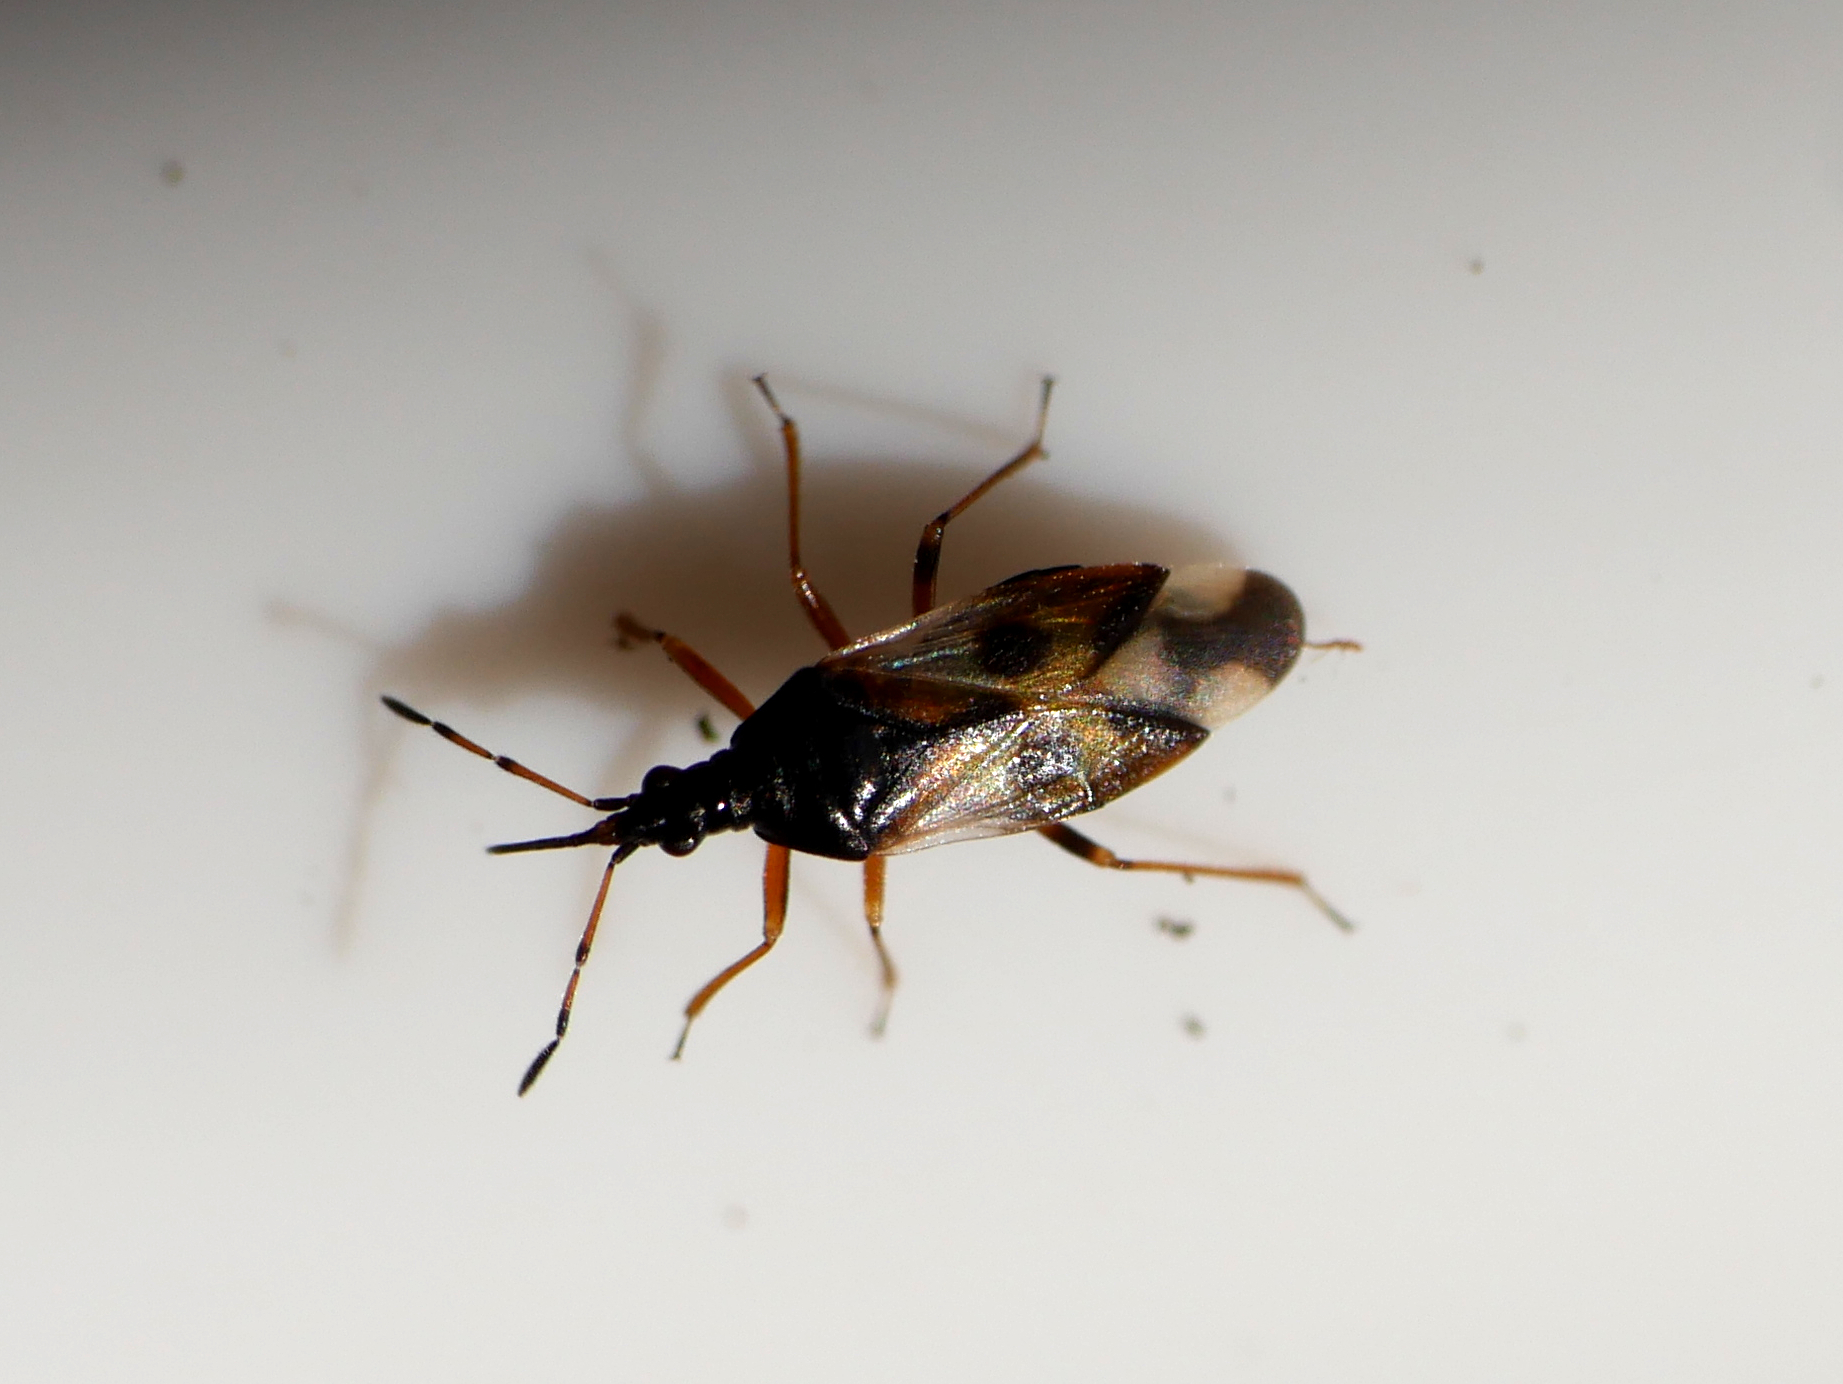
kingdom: Animalia
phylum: Arthropoda
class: Insecta
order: Hemiptera
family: Anthocoridae
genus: Anthocoris
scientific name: Anthocoris nemorum
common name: Minute pirate bug
